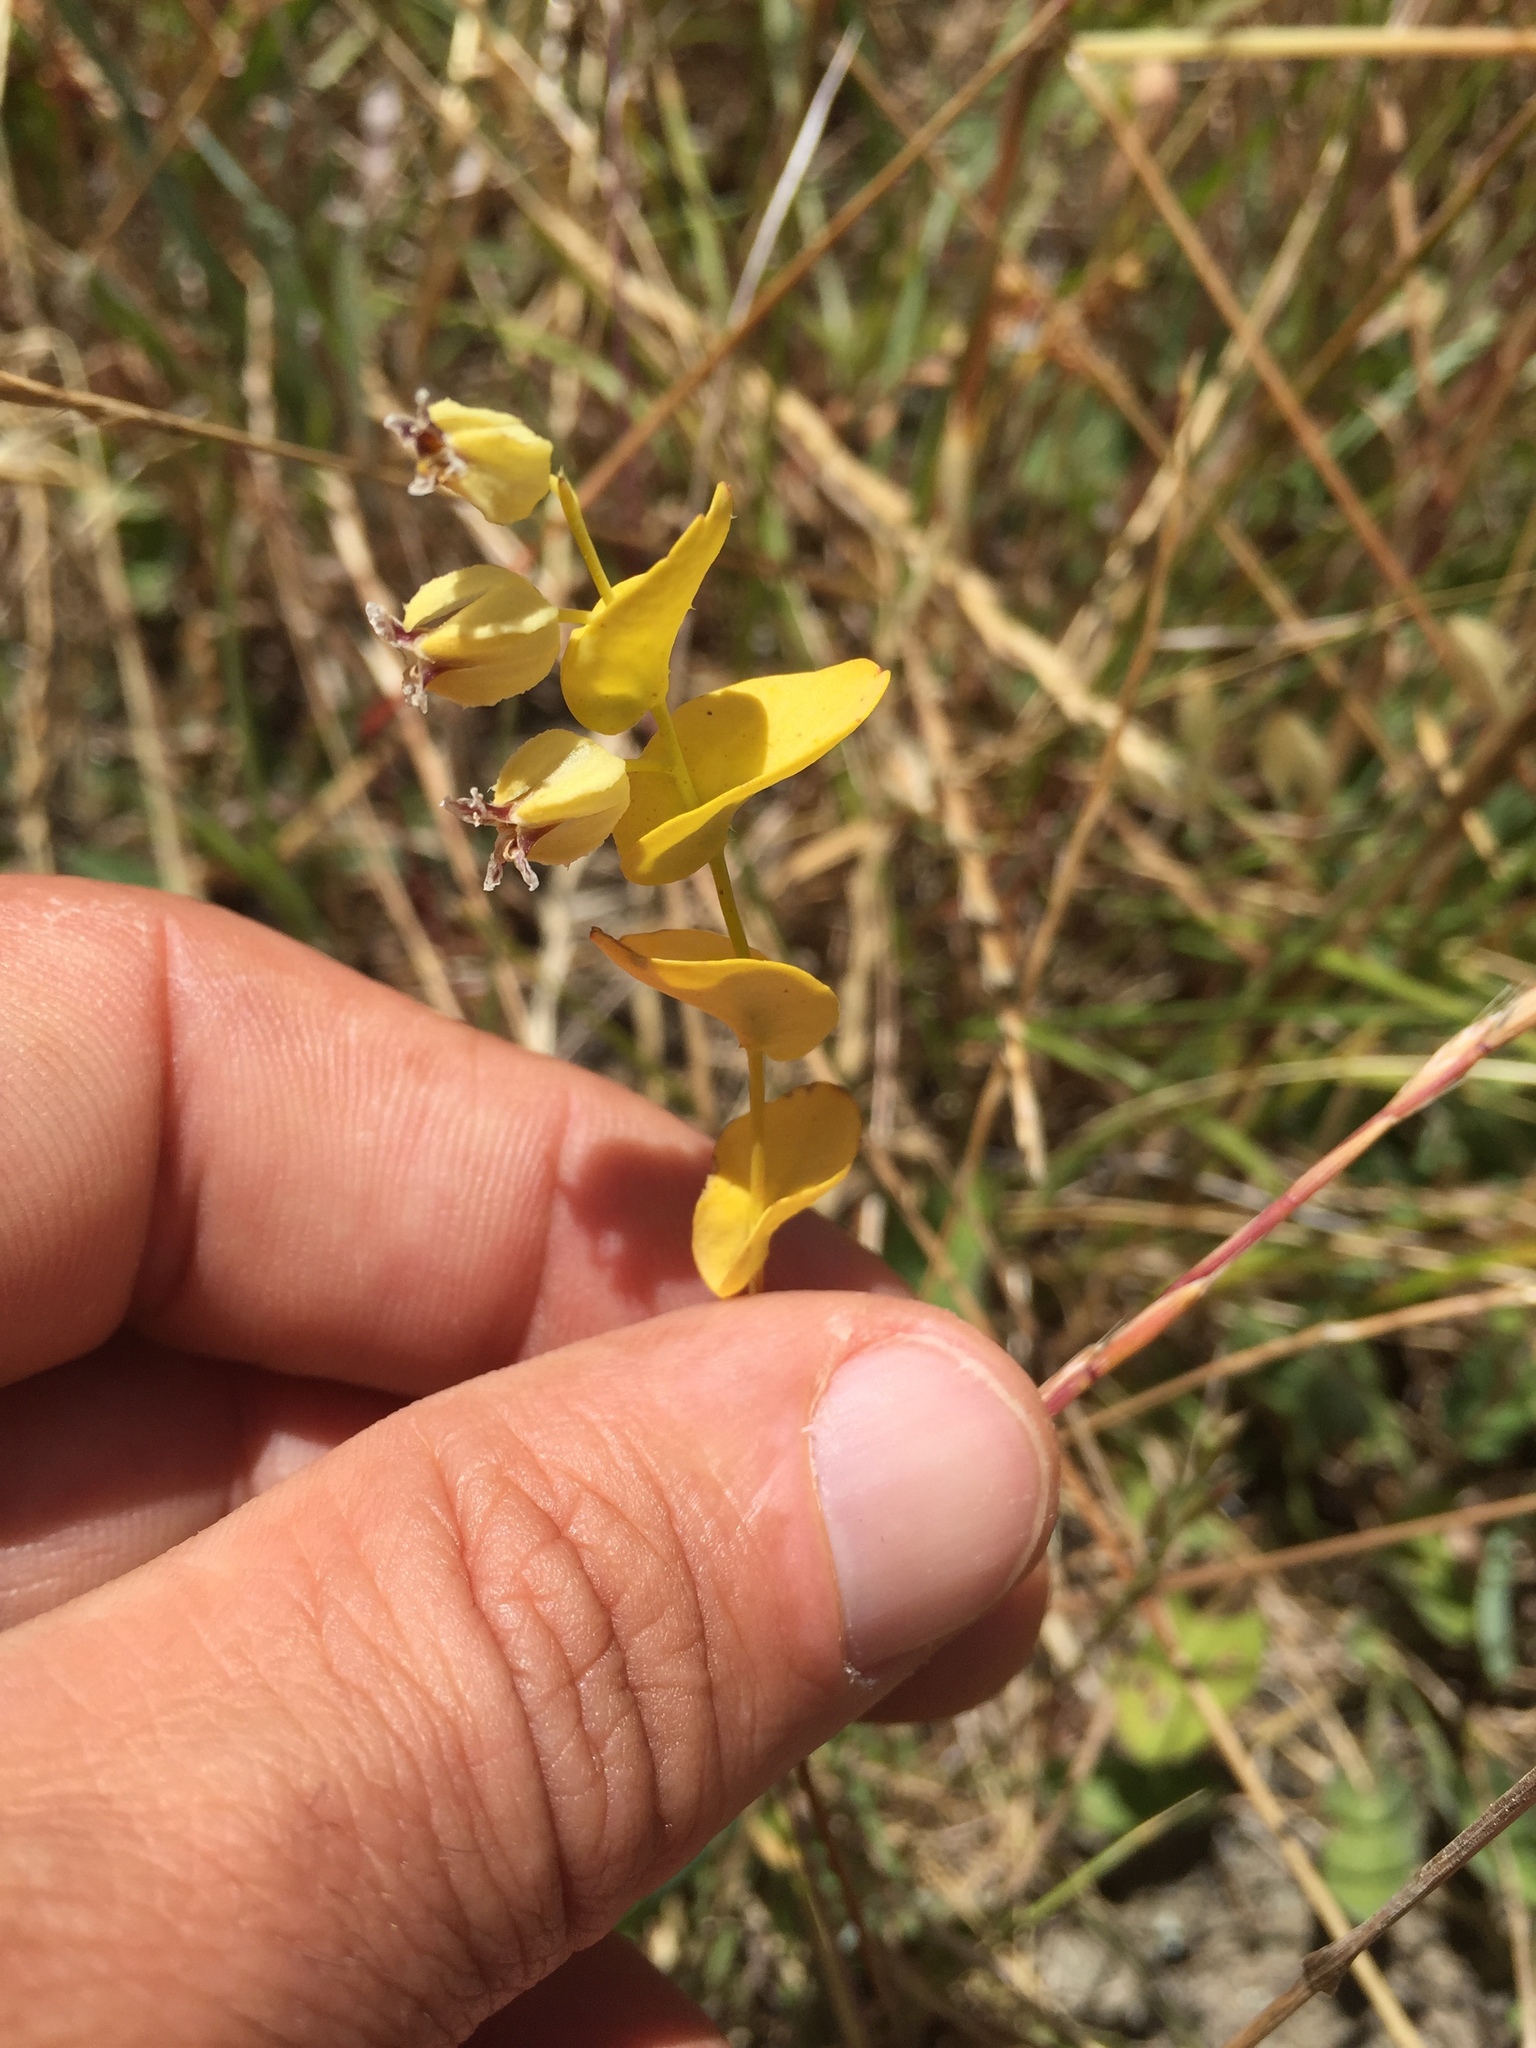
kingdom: Plantae
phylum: Tracheophyta
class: Magnoliopsida
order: Brassicales
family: Brassicaceae
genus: Streptanthus
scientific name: Streptanthus anomalus
